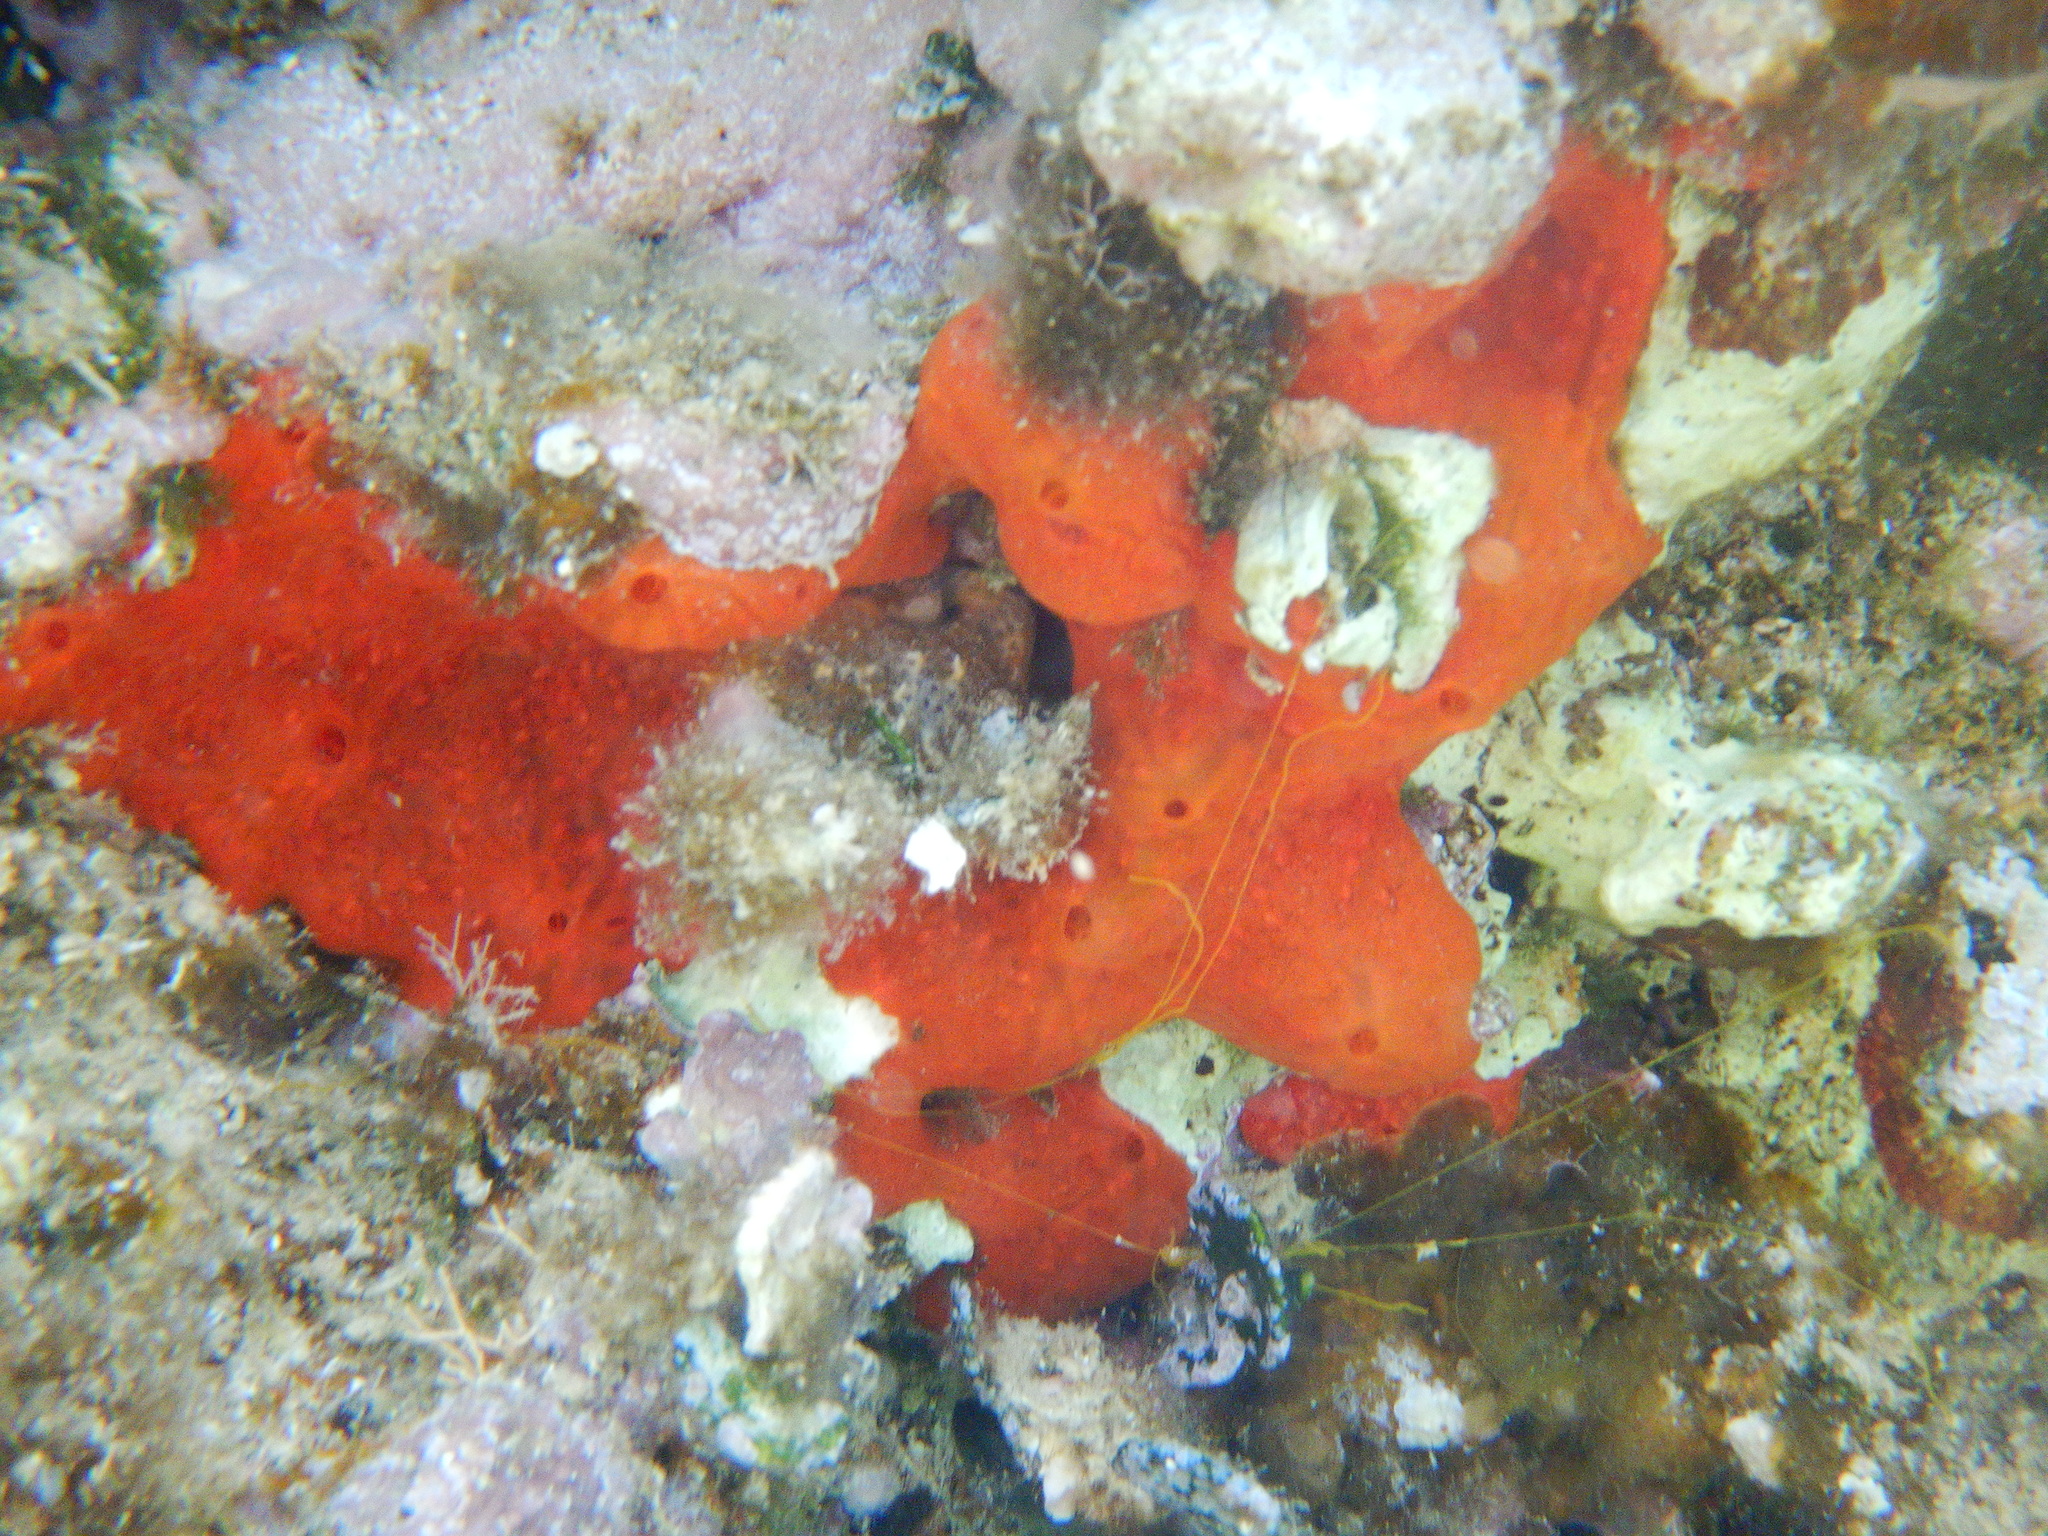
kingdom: Animalia
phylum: Porifera
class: Demospongiae
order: Poecilosclerida
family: Crambeidae
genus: Crambe
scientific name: Crambe crambe
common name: Orange-red encrusting sponge
